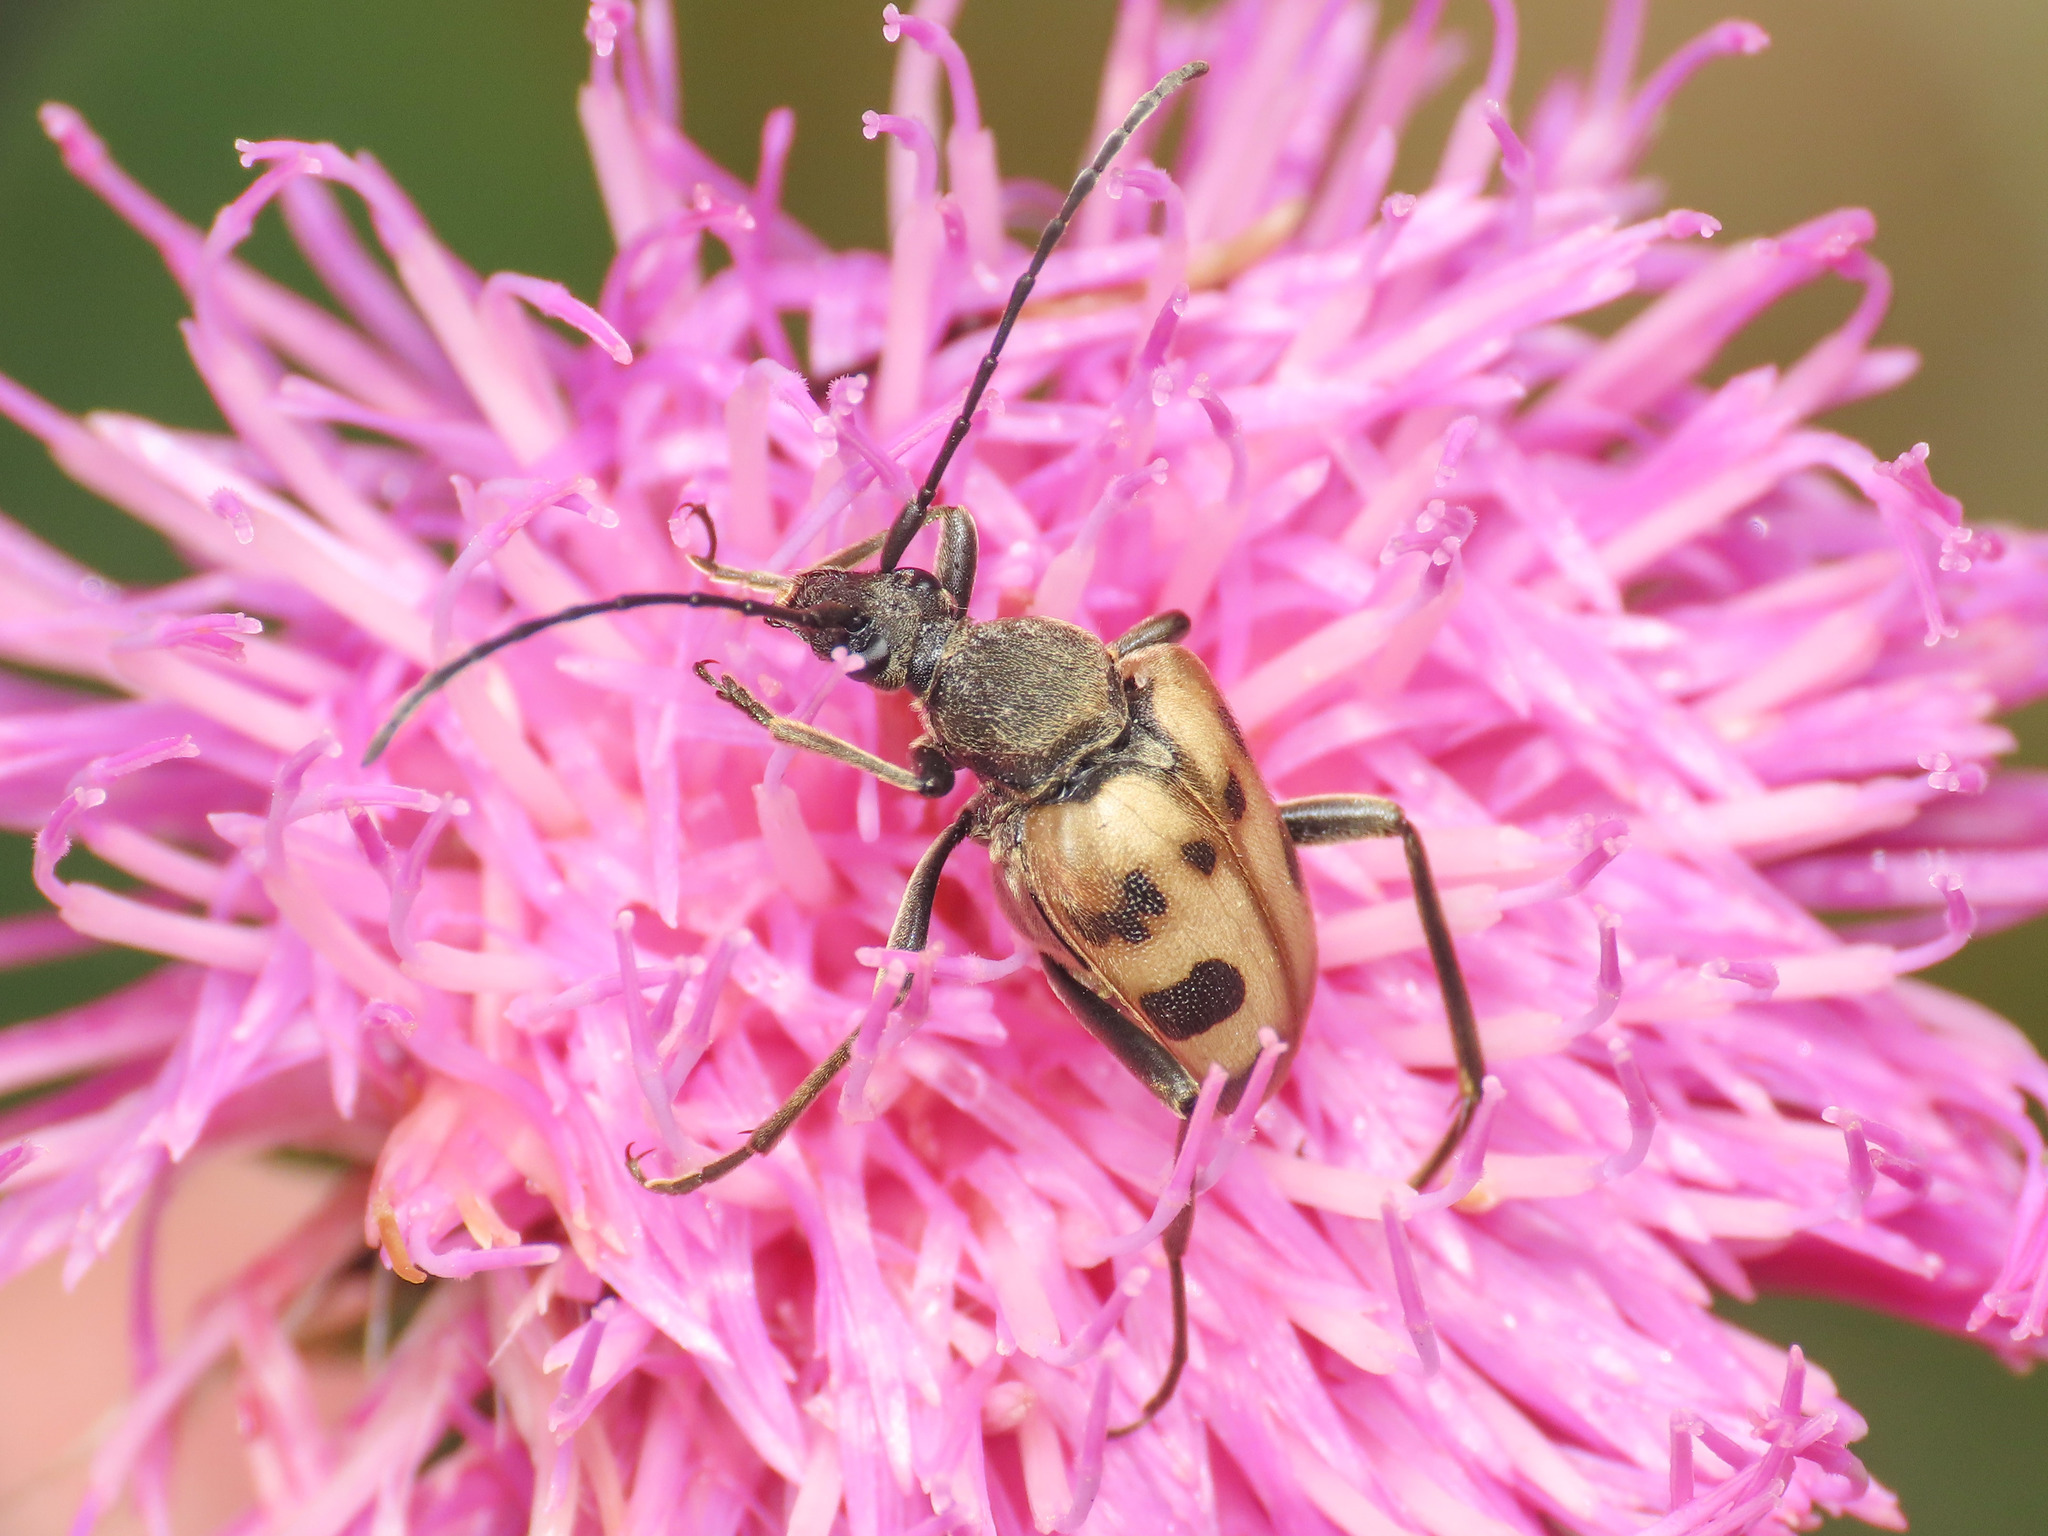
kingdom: Animalia
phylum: Arthropoda
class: Insecta
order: Coleoptera
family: Cerambycidae
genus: Pachytodes
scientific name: Pachytodes cerambyciformis
